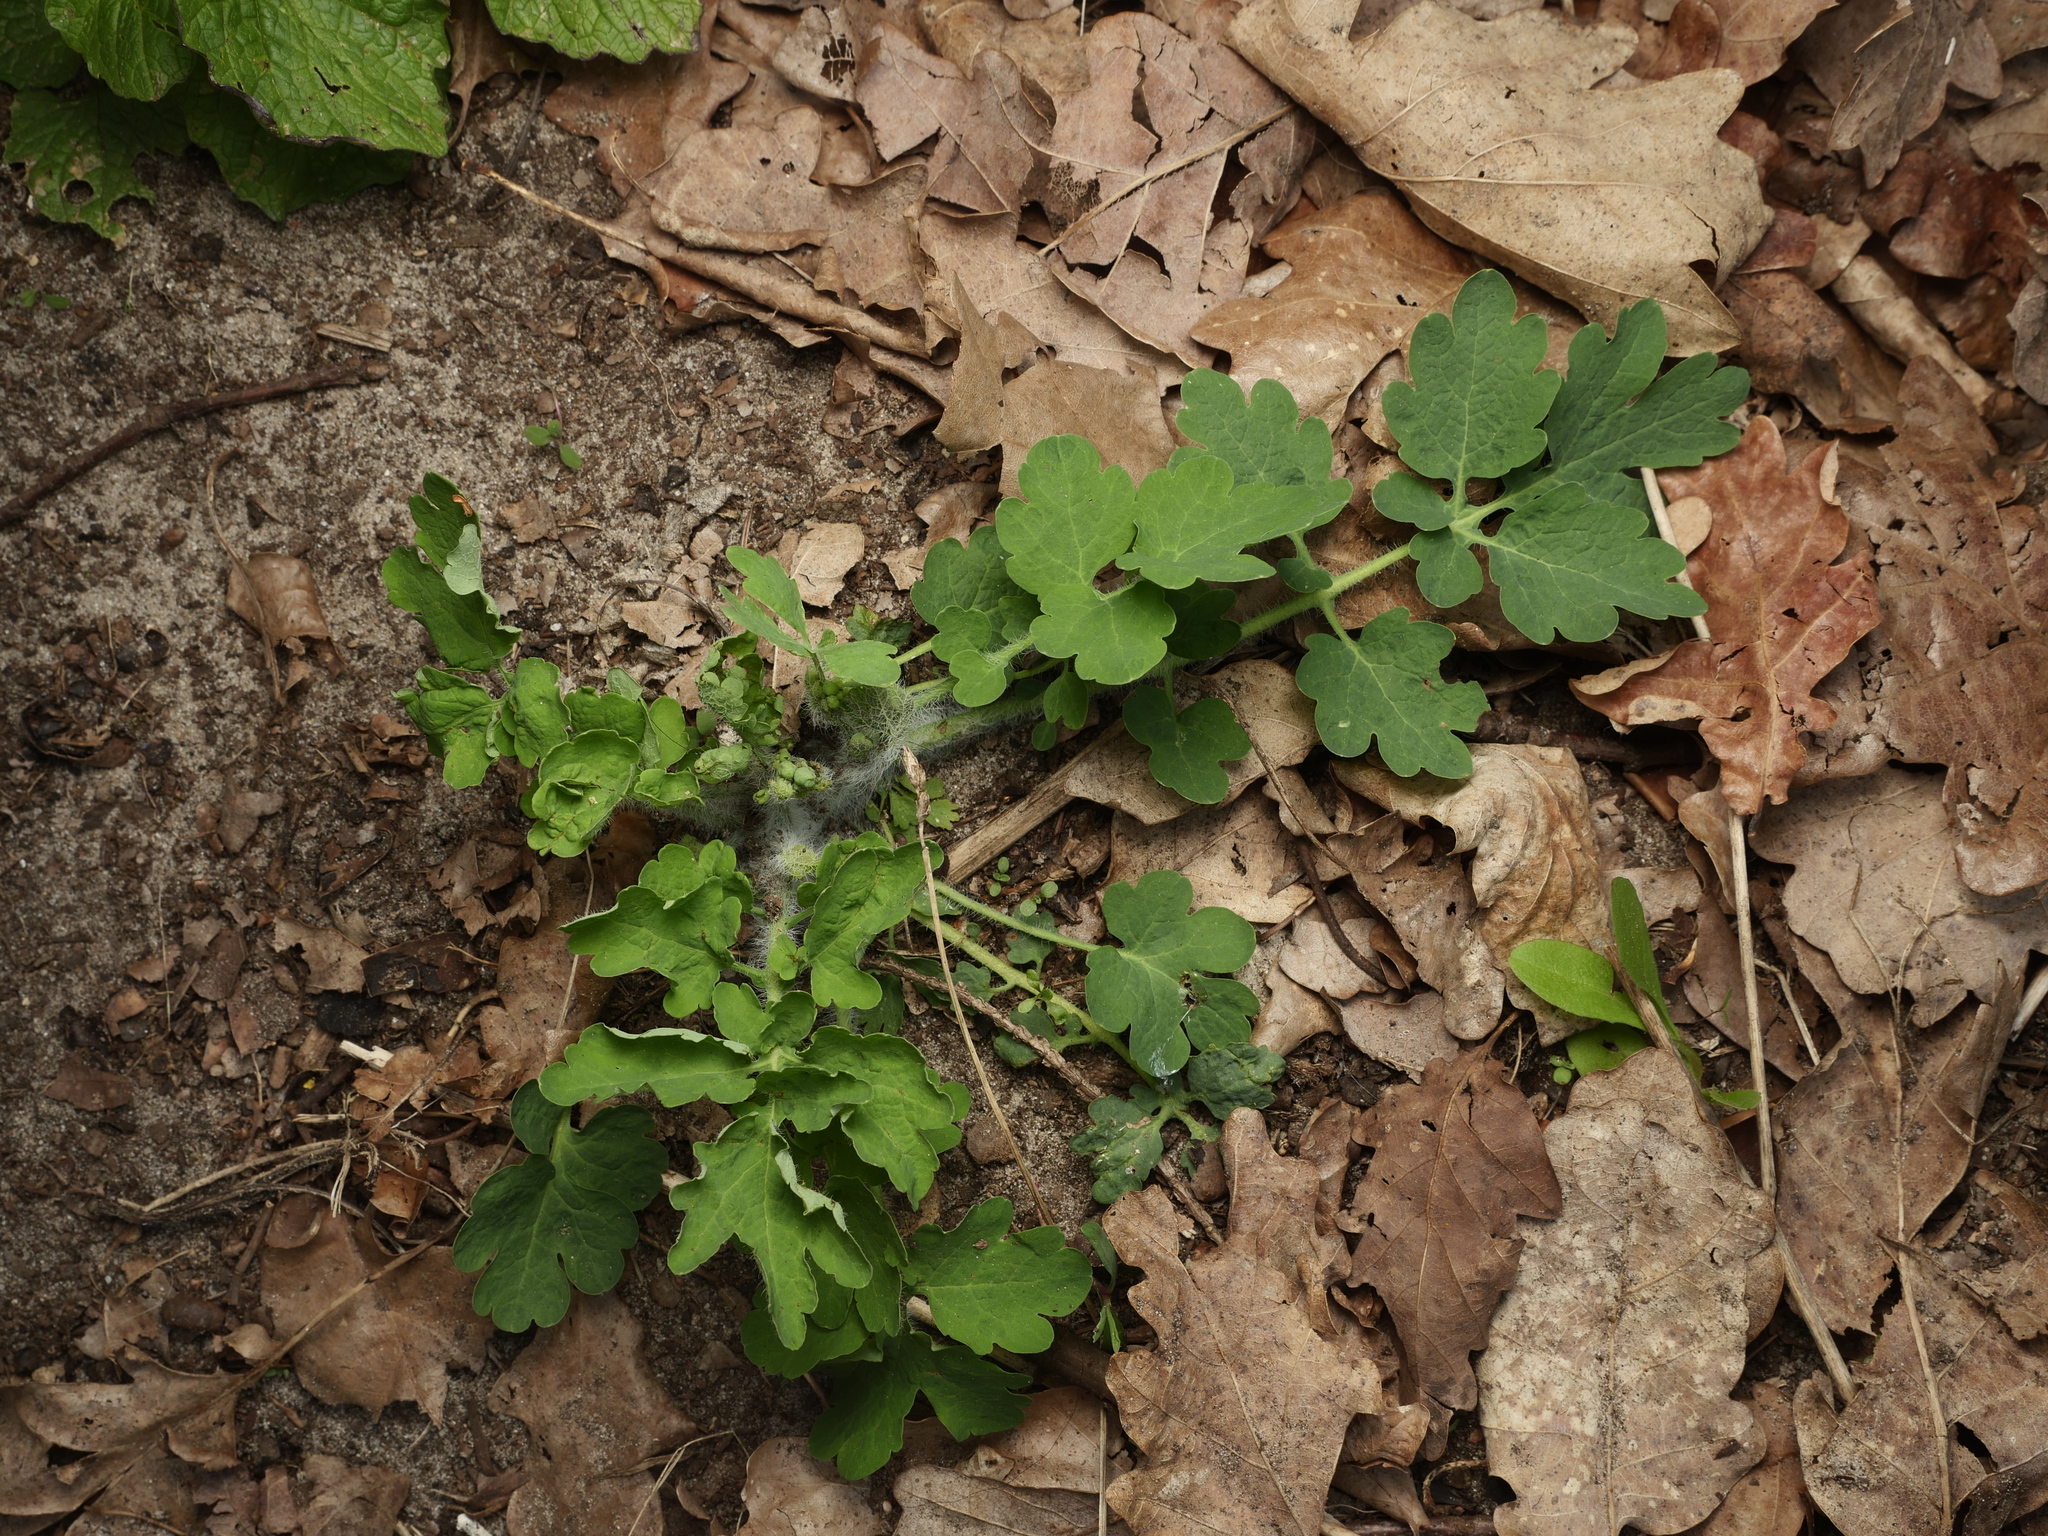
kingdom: Plantae
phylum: Tracheophyta
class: Magnoliopsida
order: Ranunculales
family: Papaveraceae
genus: Chelidonium
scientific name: Chelidonium majus
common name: Greater celandine
